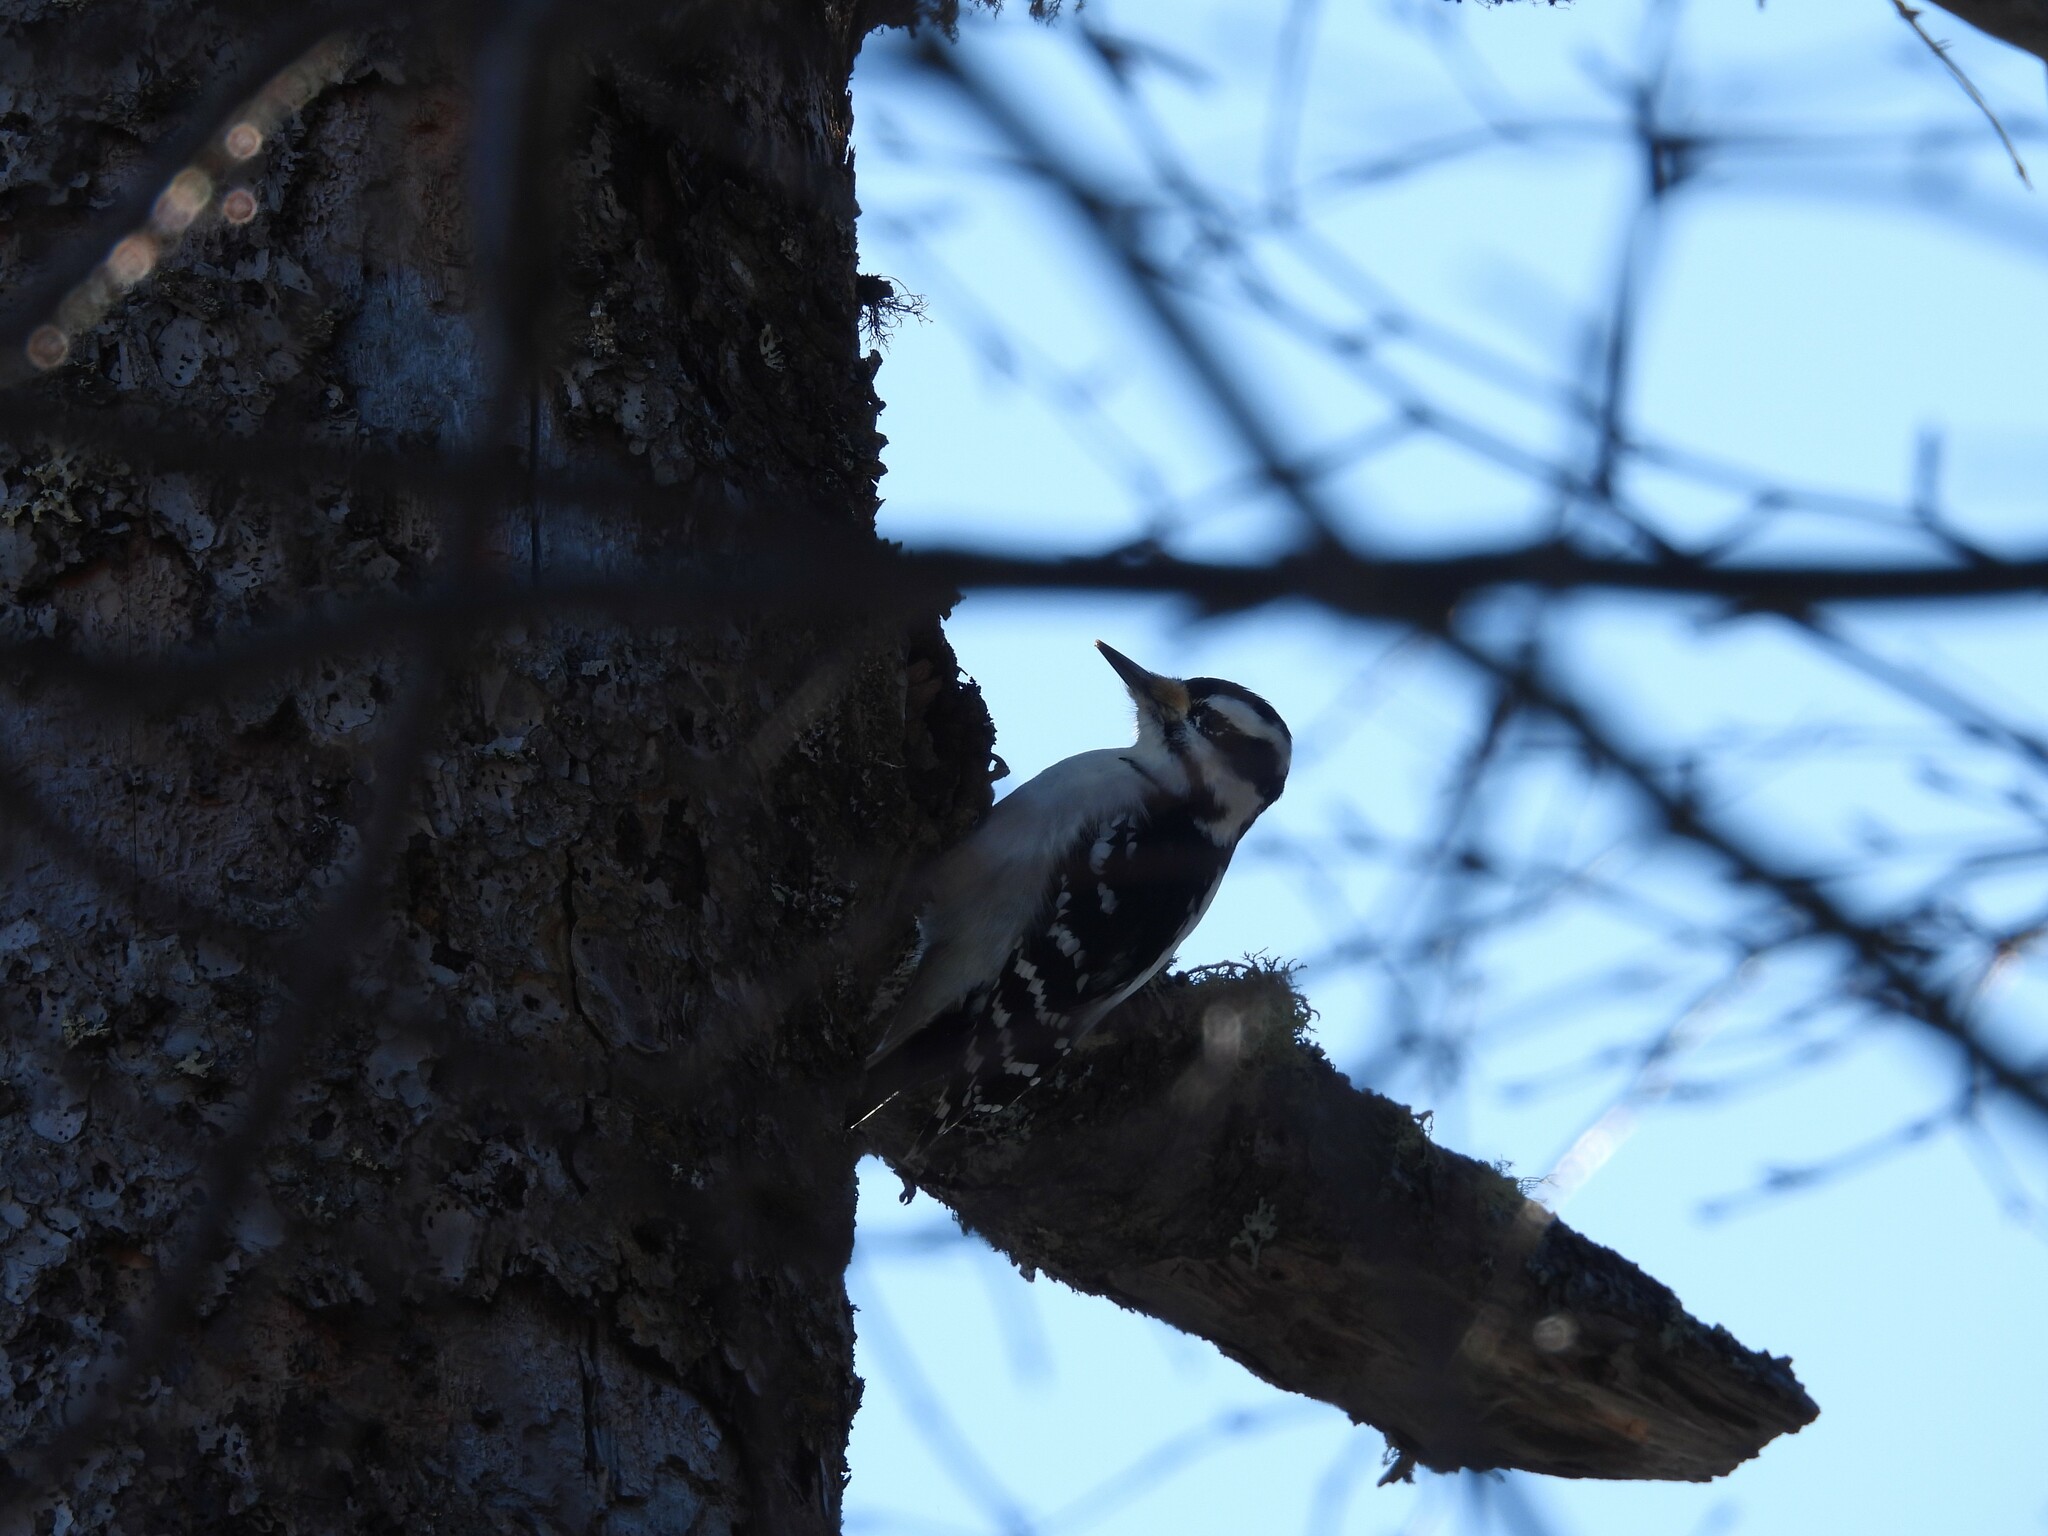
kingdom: Animalia
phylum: Chordata
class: Aves
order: Piciformes
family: Picidae
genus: Leuconotopicus
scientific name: Leuconotopicus villosus
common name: Hairy woodpecker
